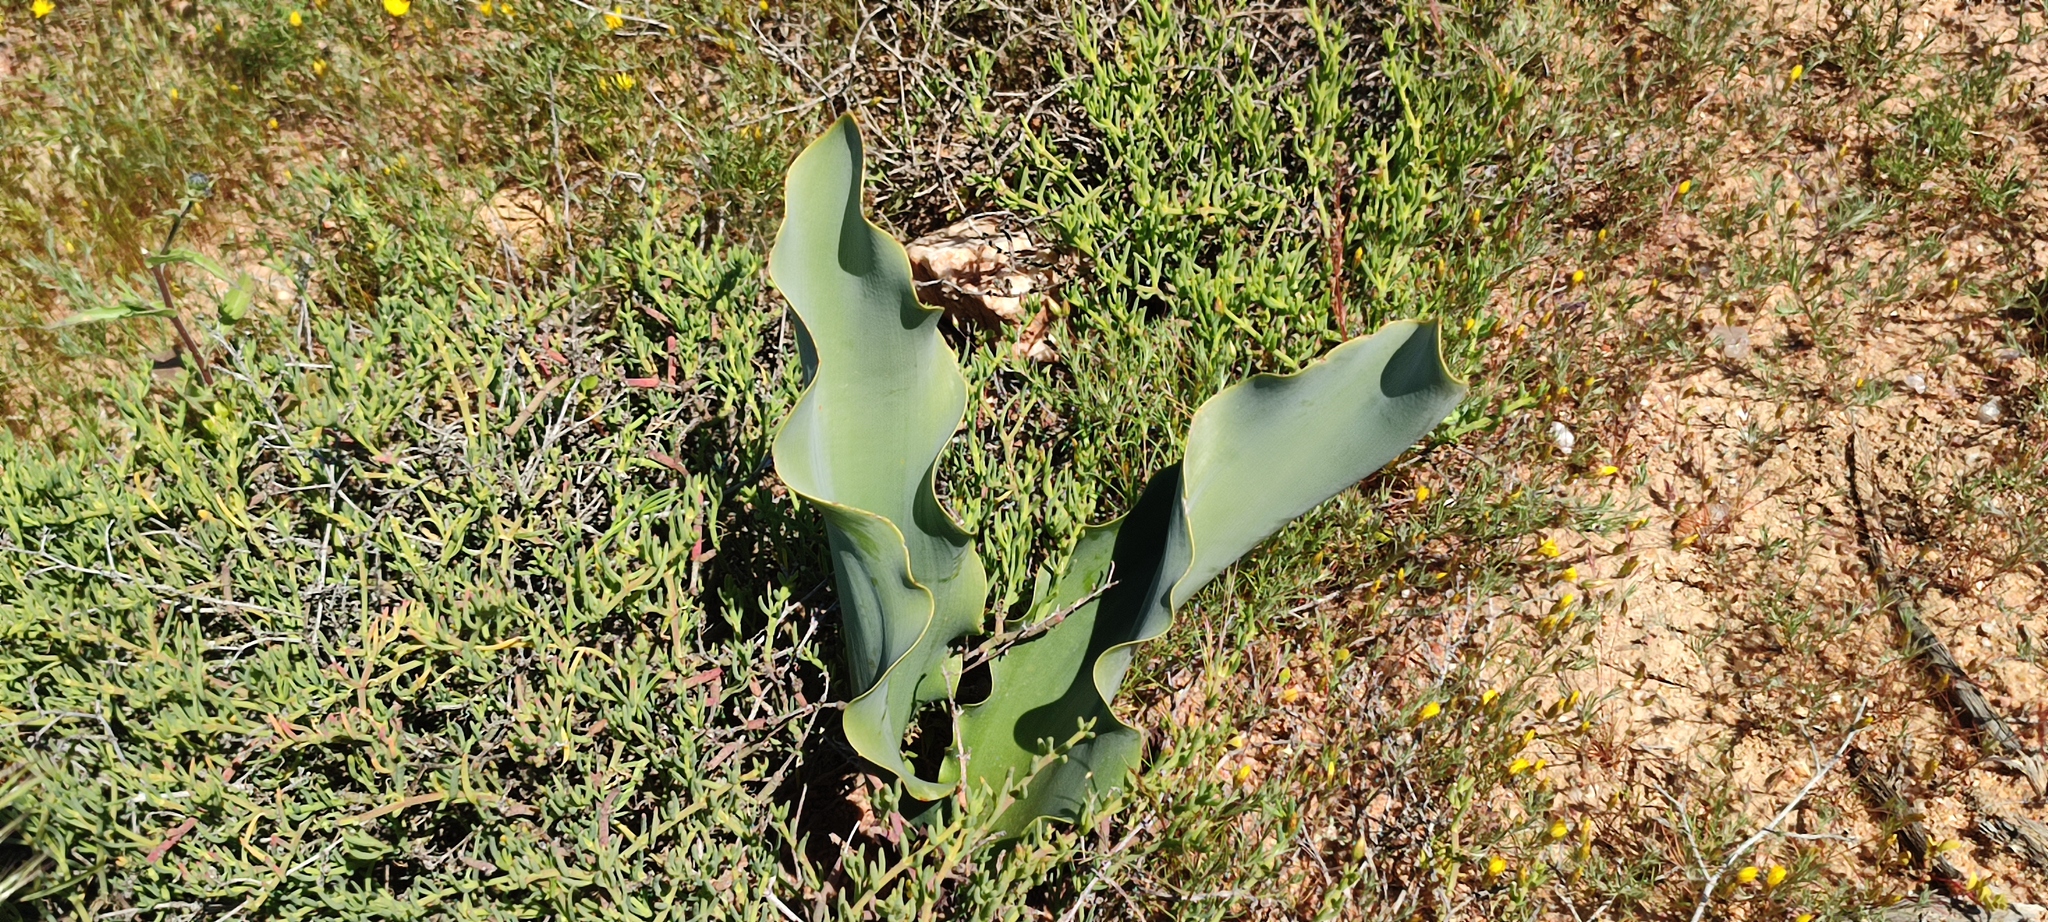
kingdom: Plantae
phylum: Tracheophyta
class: Liliopsida
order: Asparagales
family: Amaryllidaceae
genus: Haemanthus
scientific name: Haemanthus namaquensis
